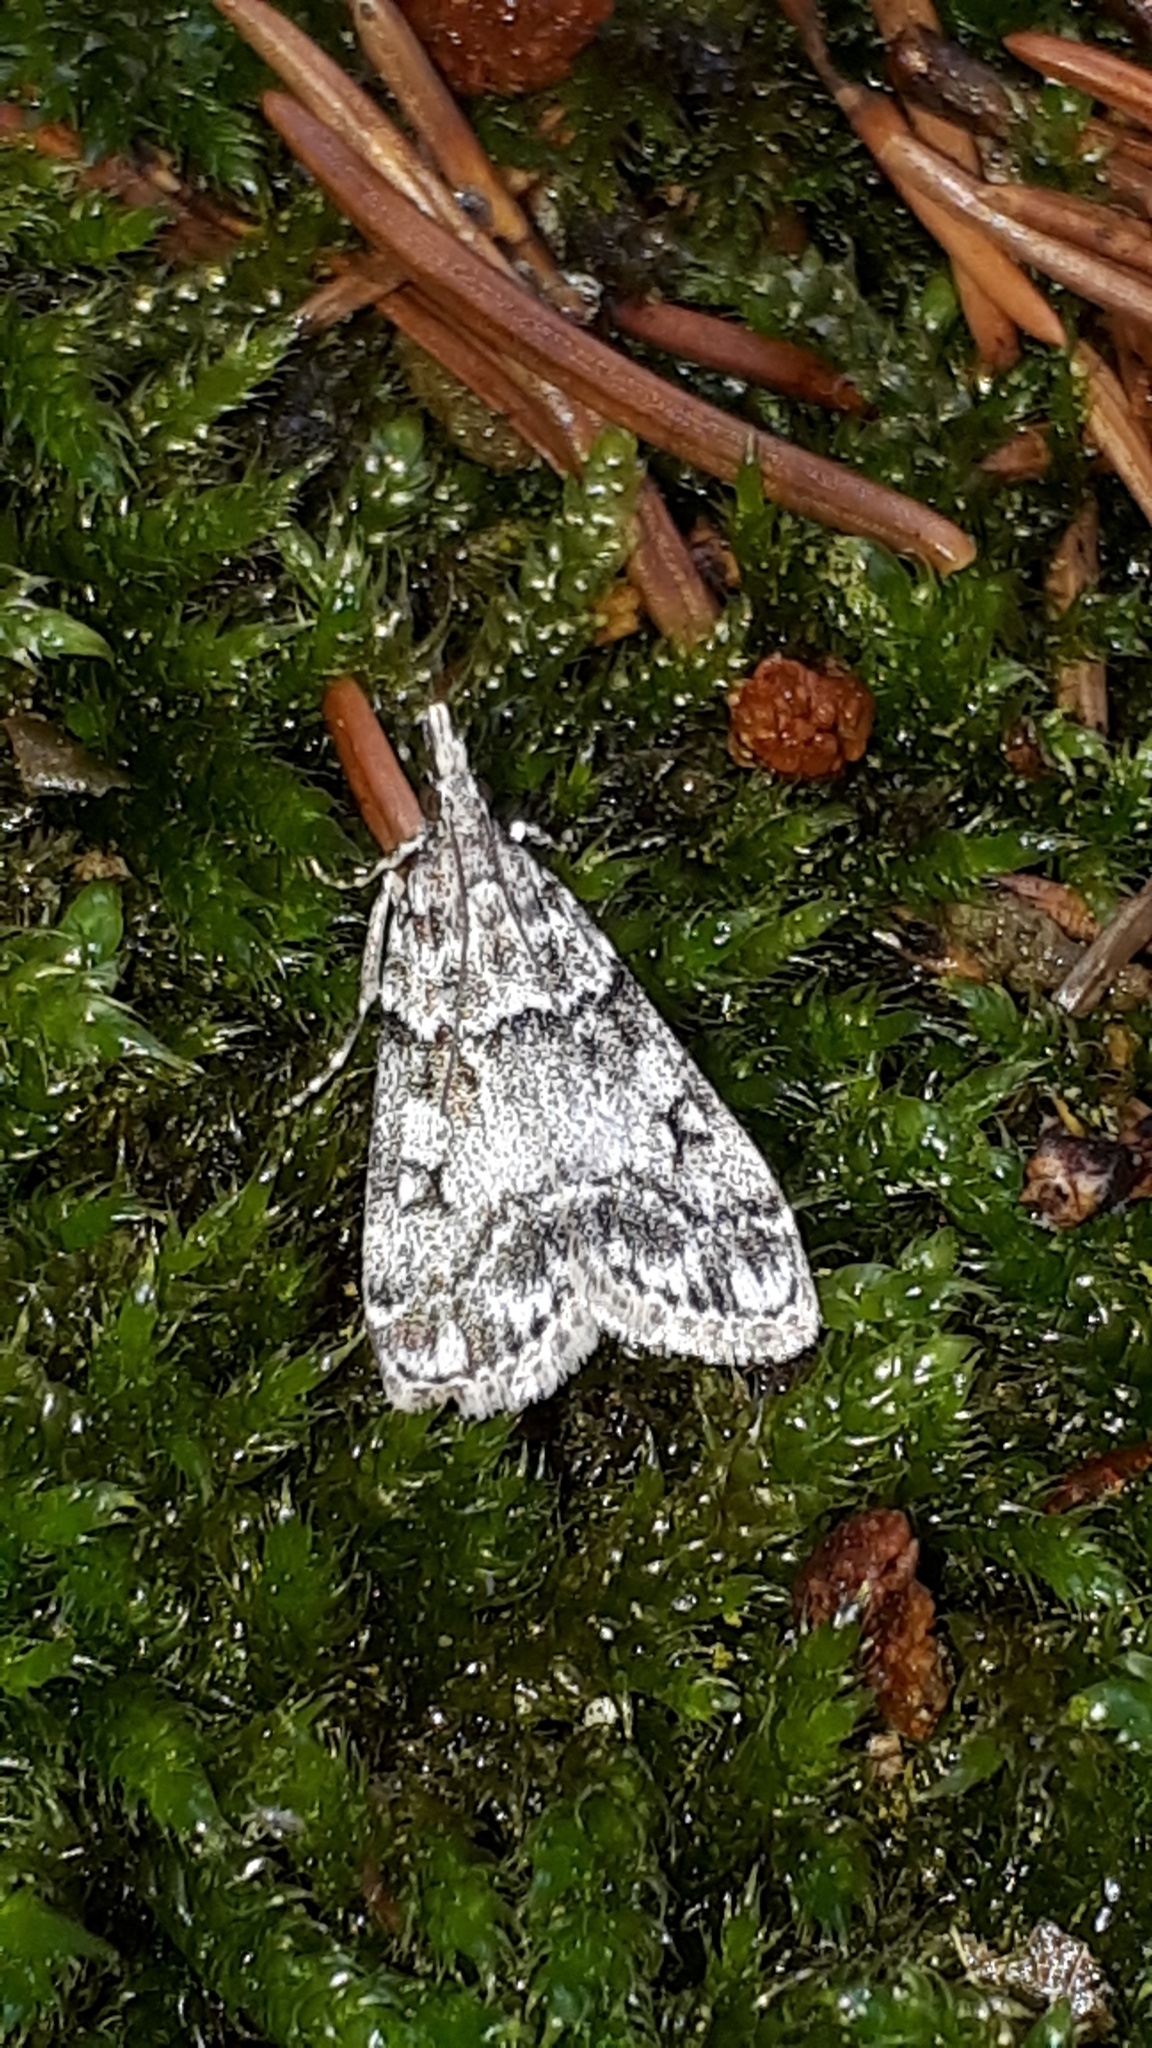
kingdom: Animalia
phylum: Arthropoda
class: Insecta
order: Lepidoptera
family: Crambidae
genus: Eudonia
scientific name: Eudonia lacustrata
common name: Little grey
